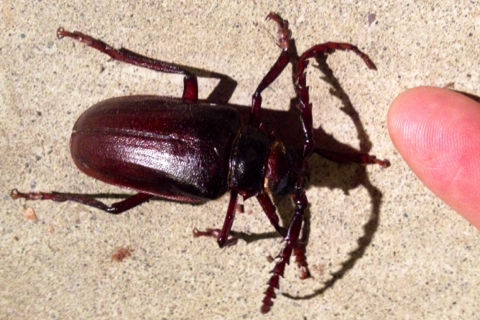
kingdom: Animalia
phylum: Arthropoda
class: Insecta
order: Coleoptera
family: Cerambycidae
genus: Prionus
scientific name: Prionus californicus
